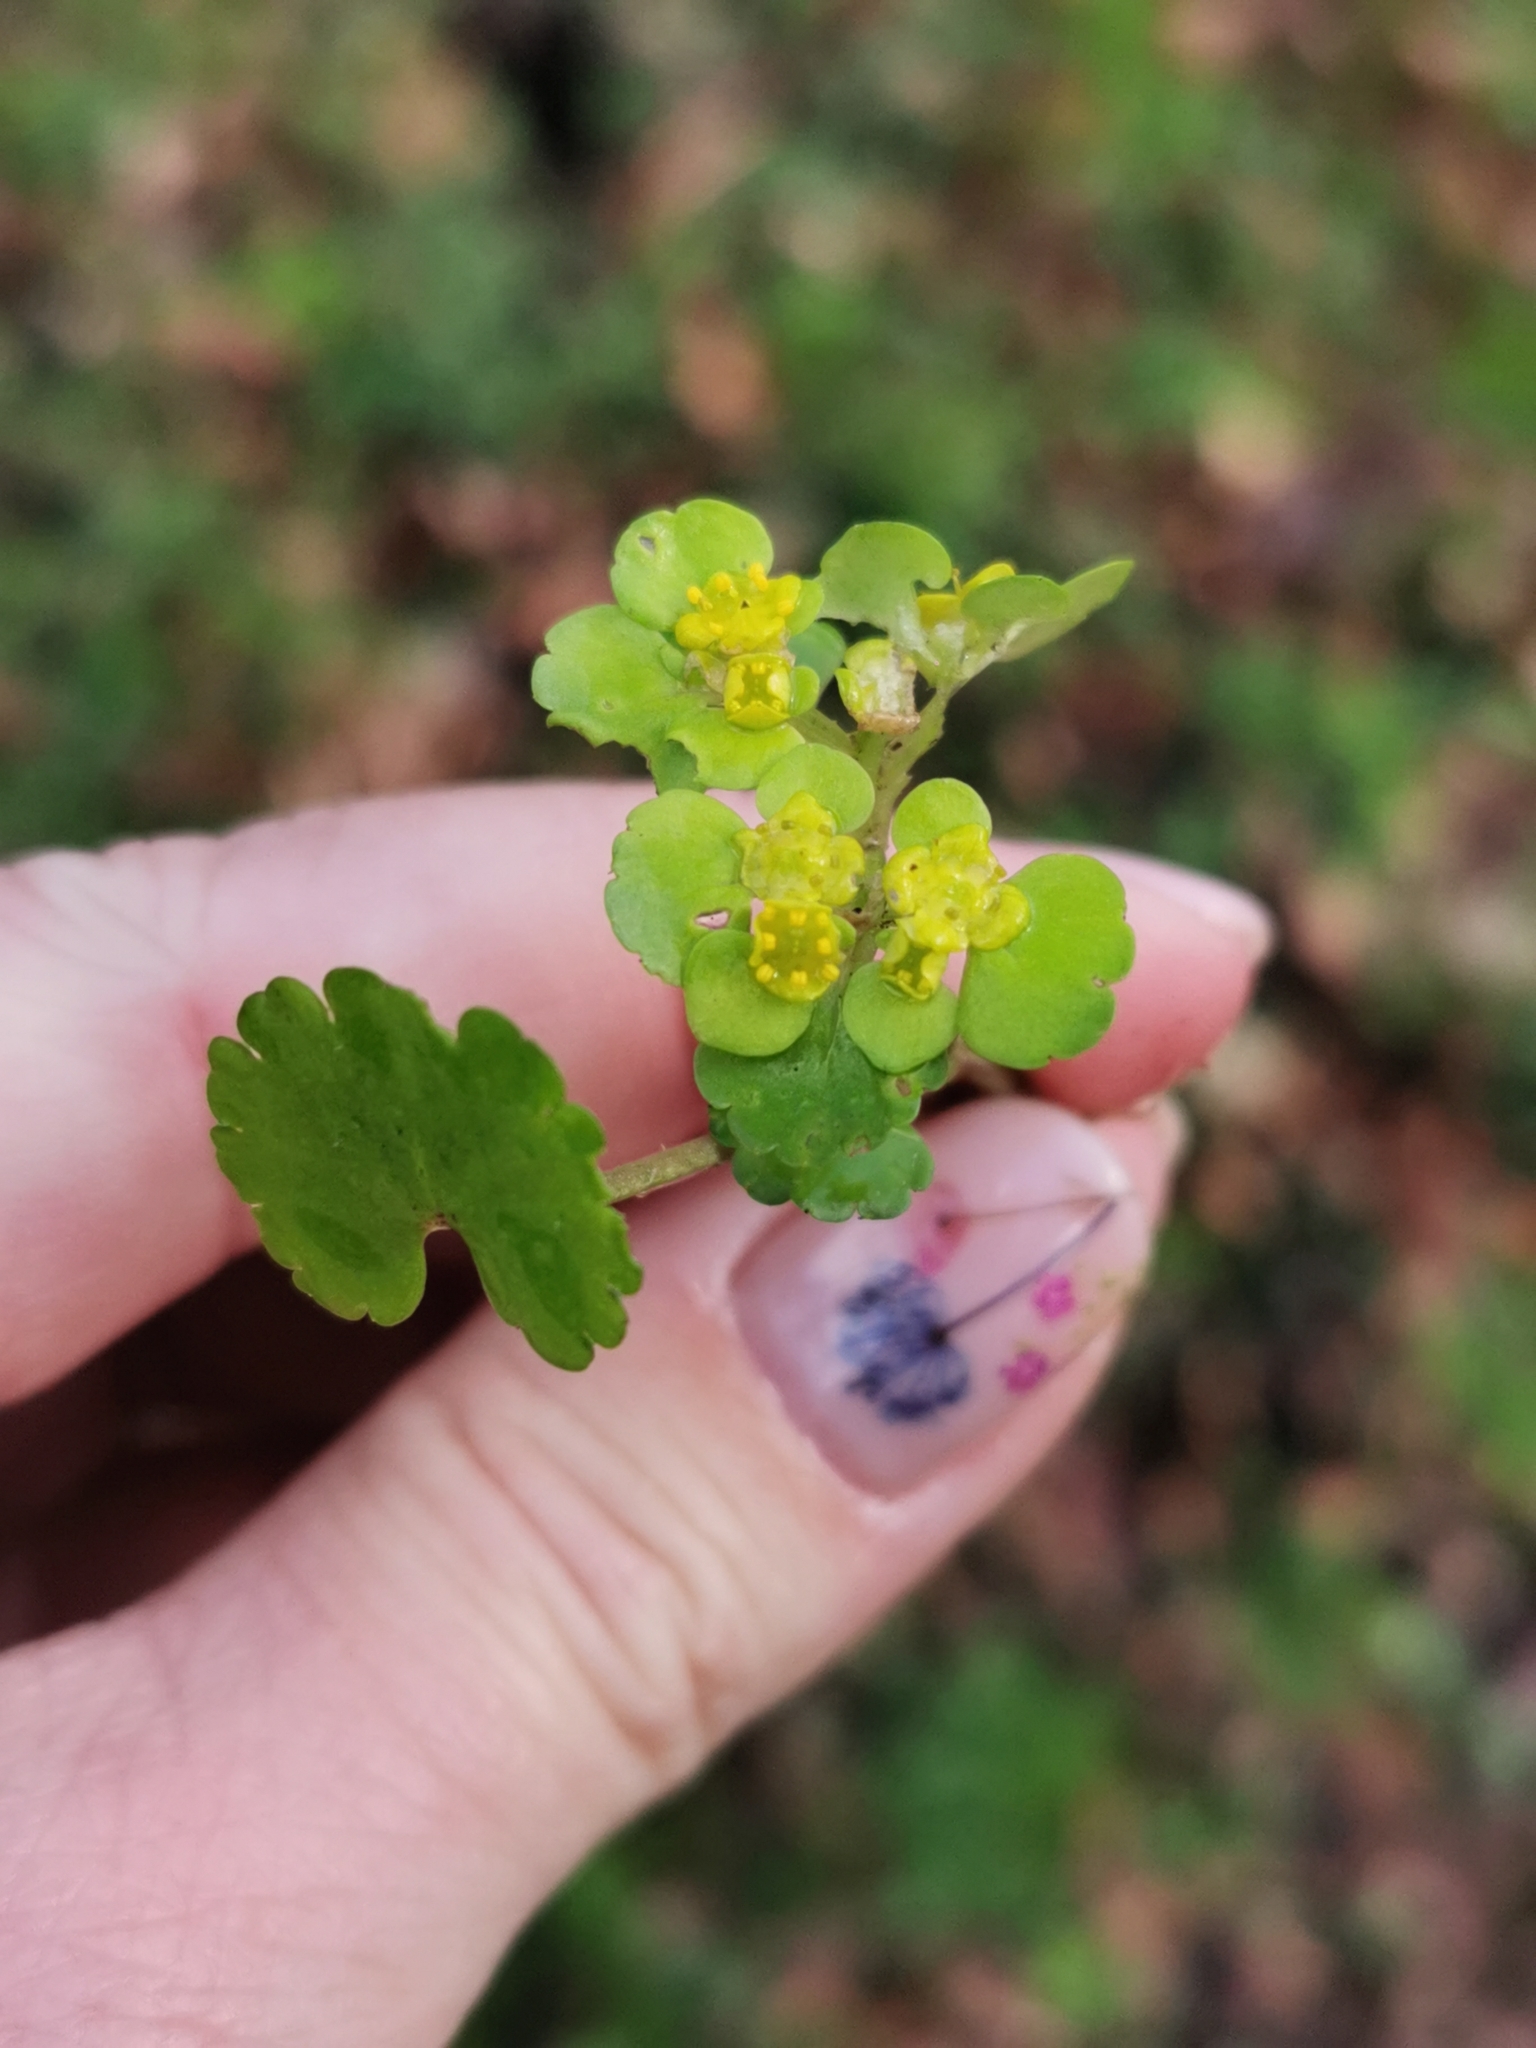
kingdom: Plantae
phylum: Tracheophyta
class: Magnoliopsida
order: Saxifragales
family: Saxifragaceae
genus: Chrysosplenium
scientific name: Chrysosplenium alternifolium
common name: Alternate-leaved golden-saxifrage
